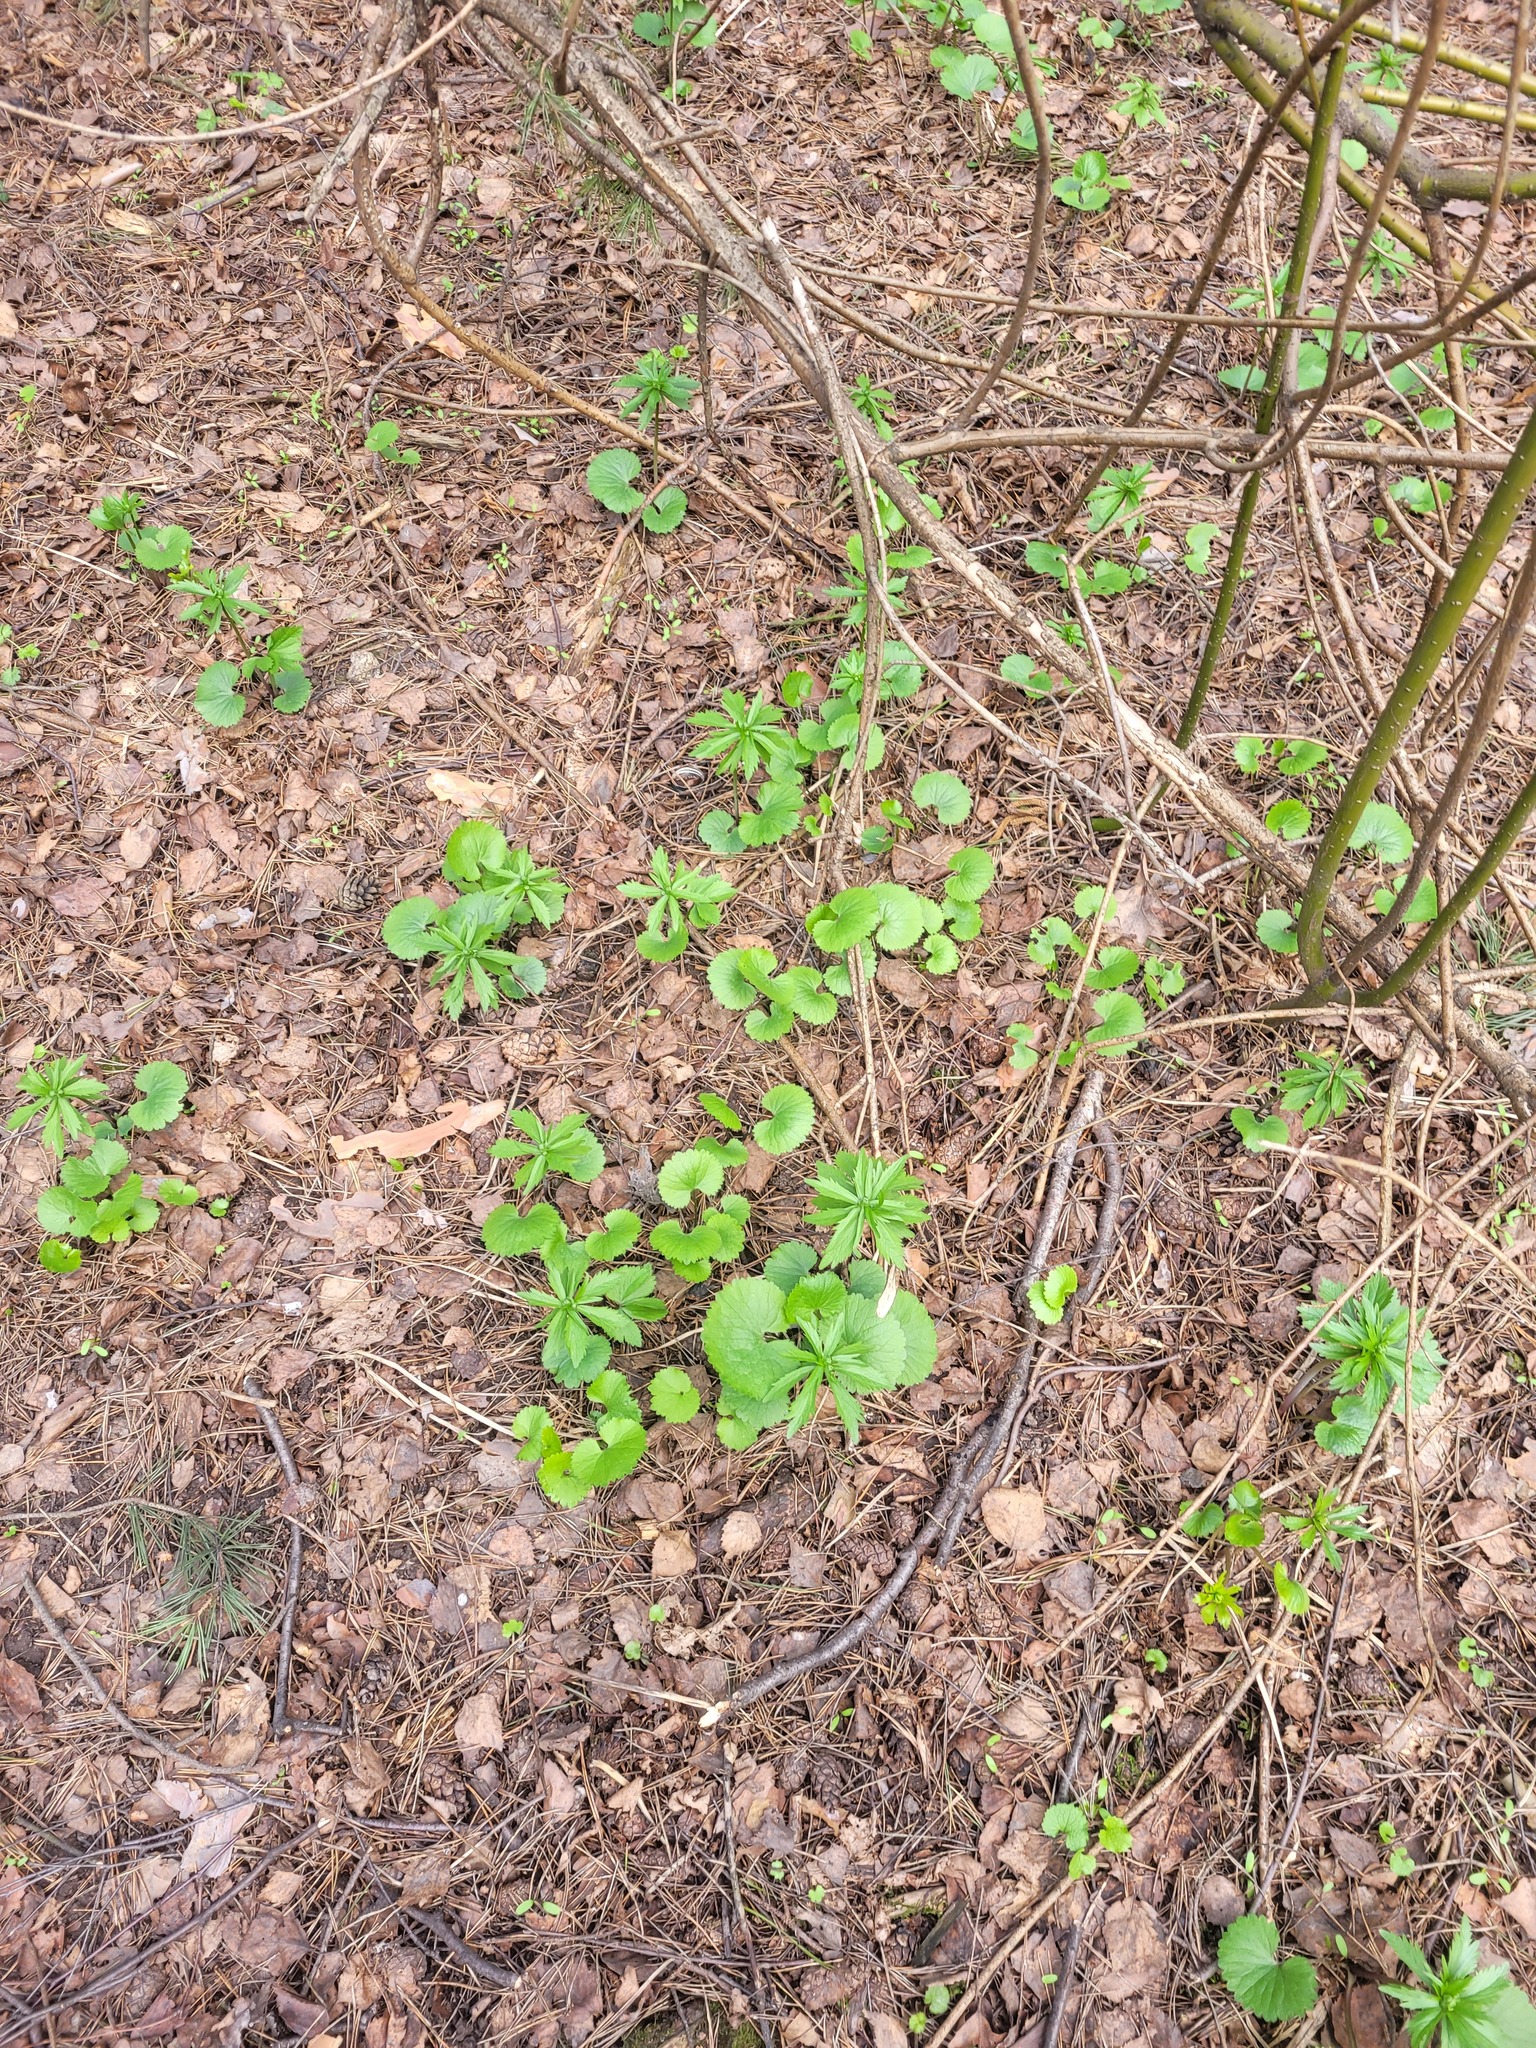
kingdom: Plantae
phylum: Tracheophyta
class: Magnoliopsida
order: Ranunculales
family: Ranunculaceae
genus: Ranunculus
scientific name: Ranunculus cassubicus
